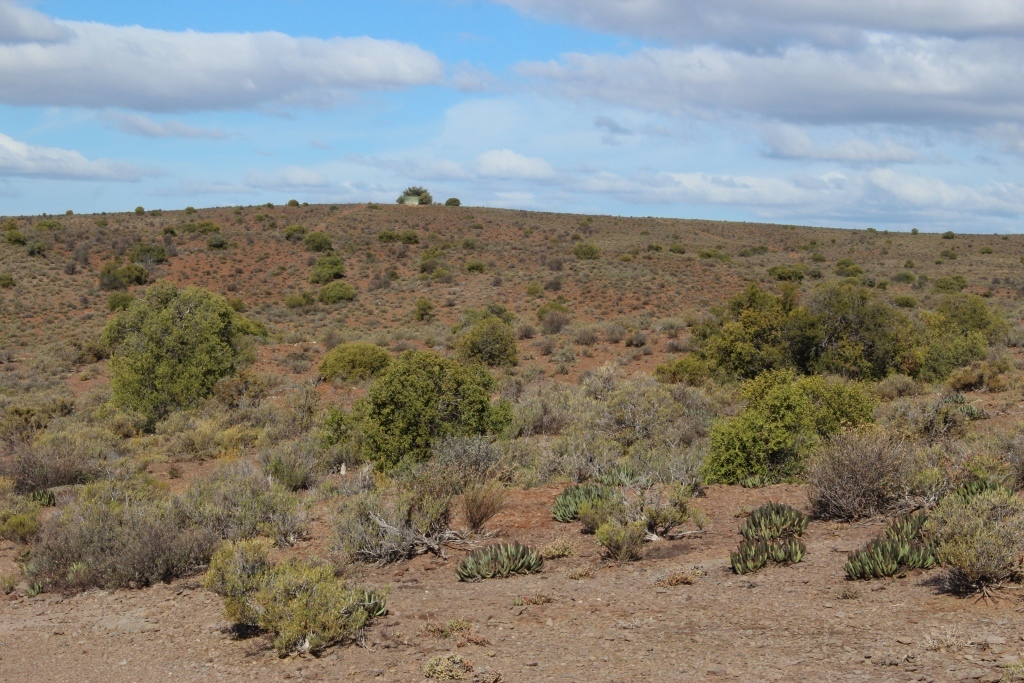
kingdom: Plantae
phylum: Tracheophyta
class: Magnoliopsida
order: Caryophyllales
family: Aizoaceae
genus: Cylindrophyllum
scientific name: Cylindrophyllum comptonii
